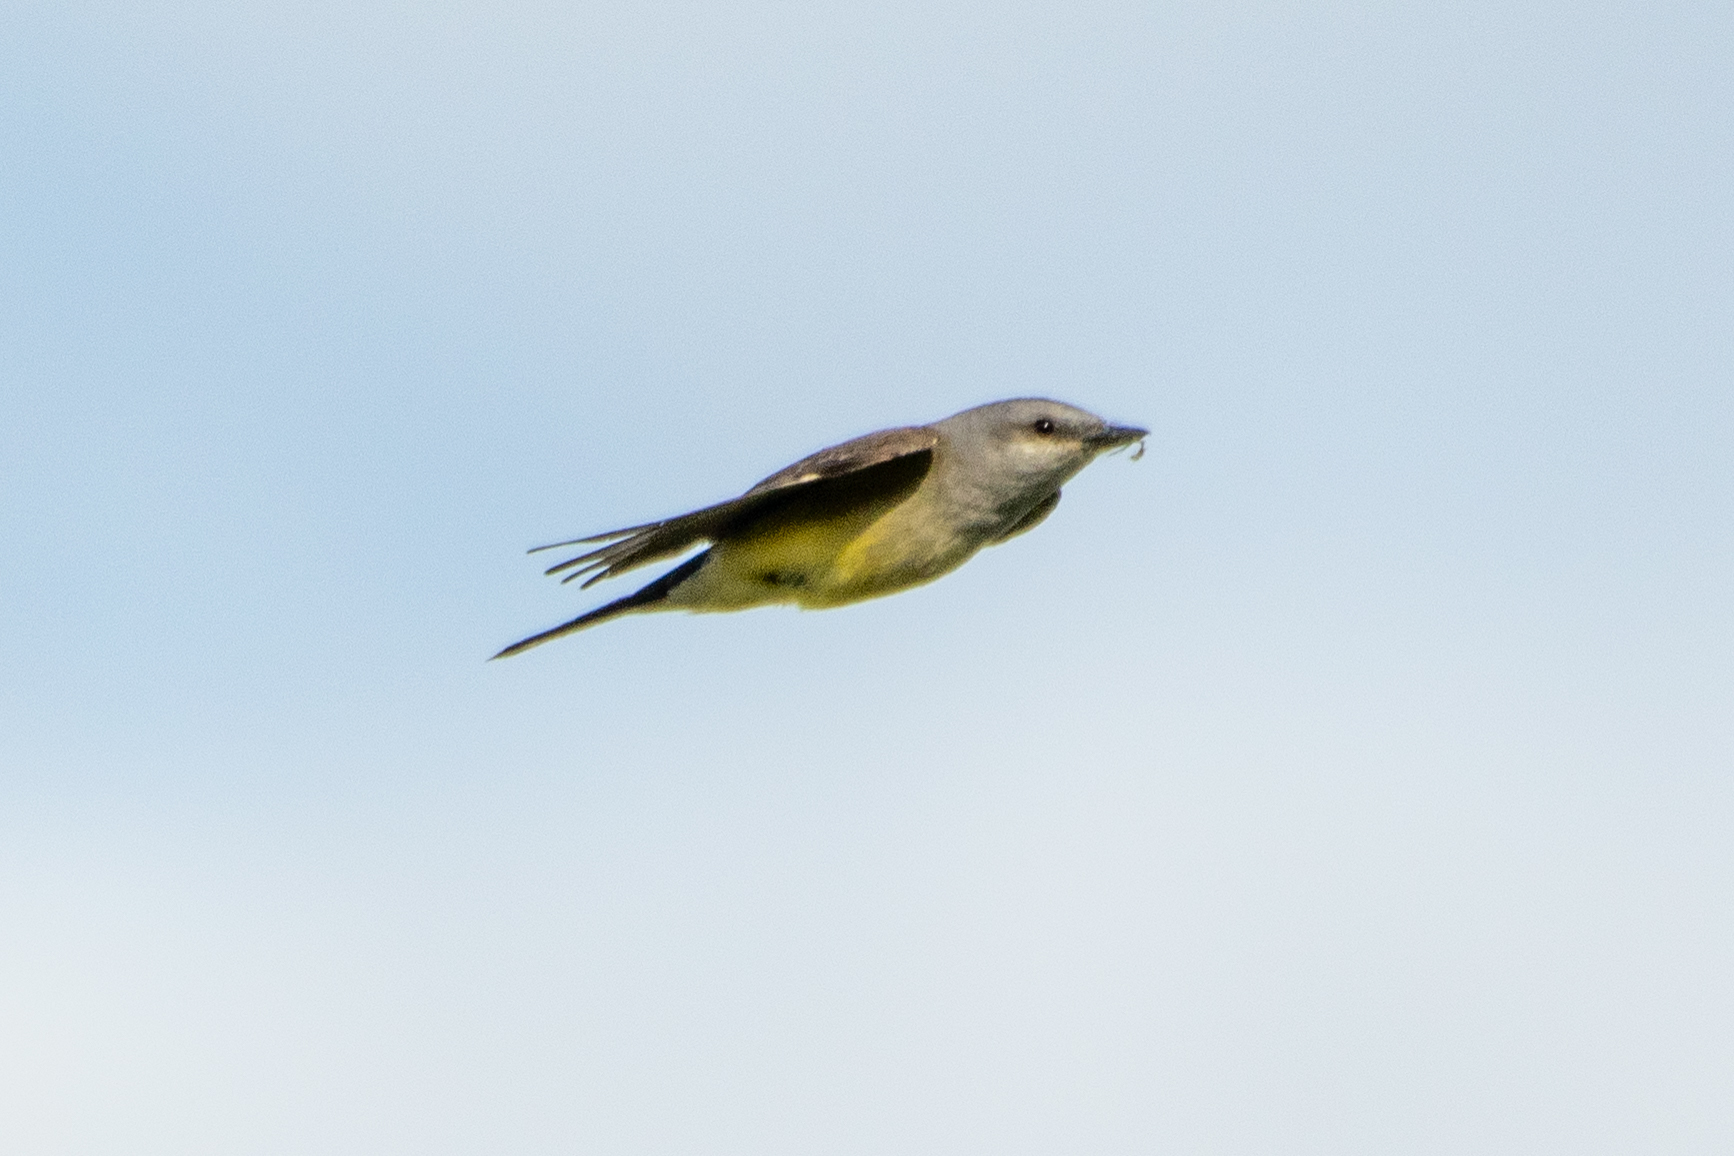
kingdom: Animalia
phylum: Chordata
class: Aves
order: Passeriformes
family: Tyrannidae
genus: Tyrannus
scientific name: Tyrannus verticalis
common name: Western kingbird
